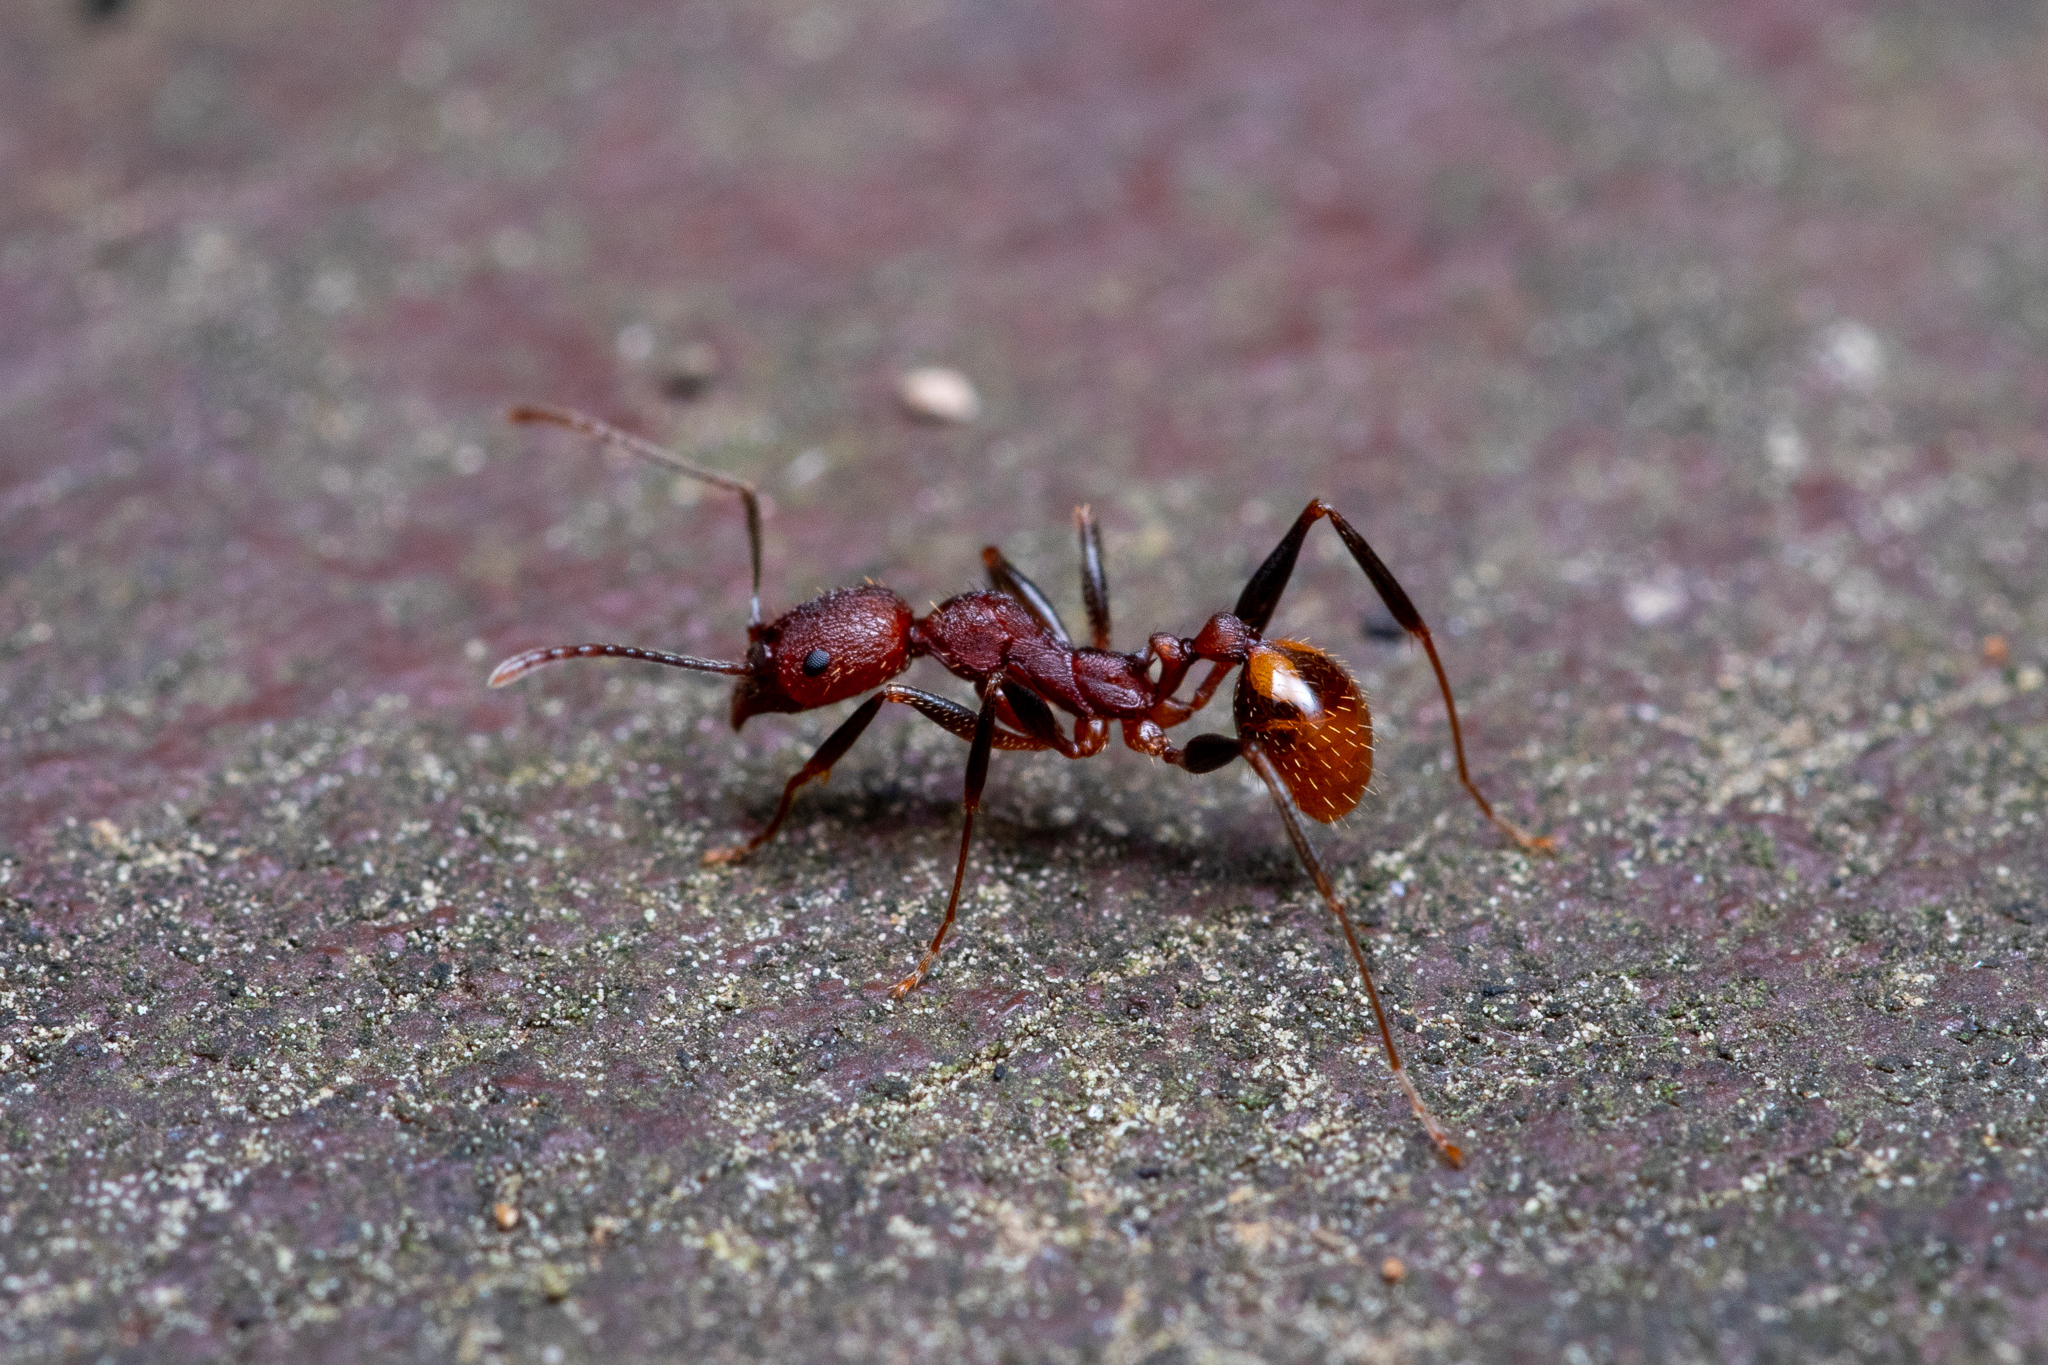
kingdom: Animalia
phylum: Arthropoda
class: Insecta
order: Hymenoptera
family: Formicidae
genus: Aphaenogaster
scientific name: Aphaenogaster lamellidens
